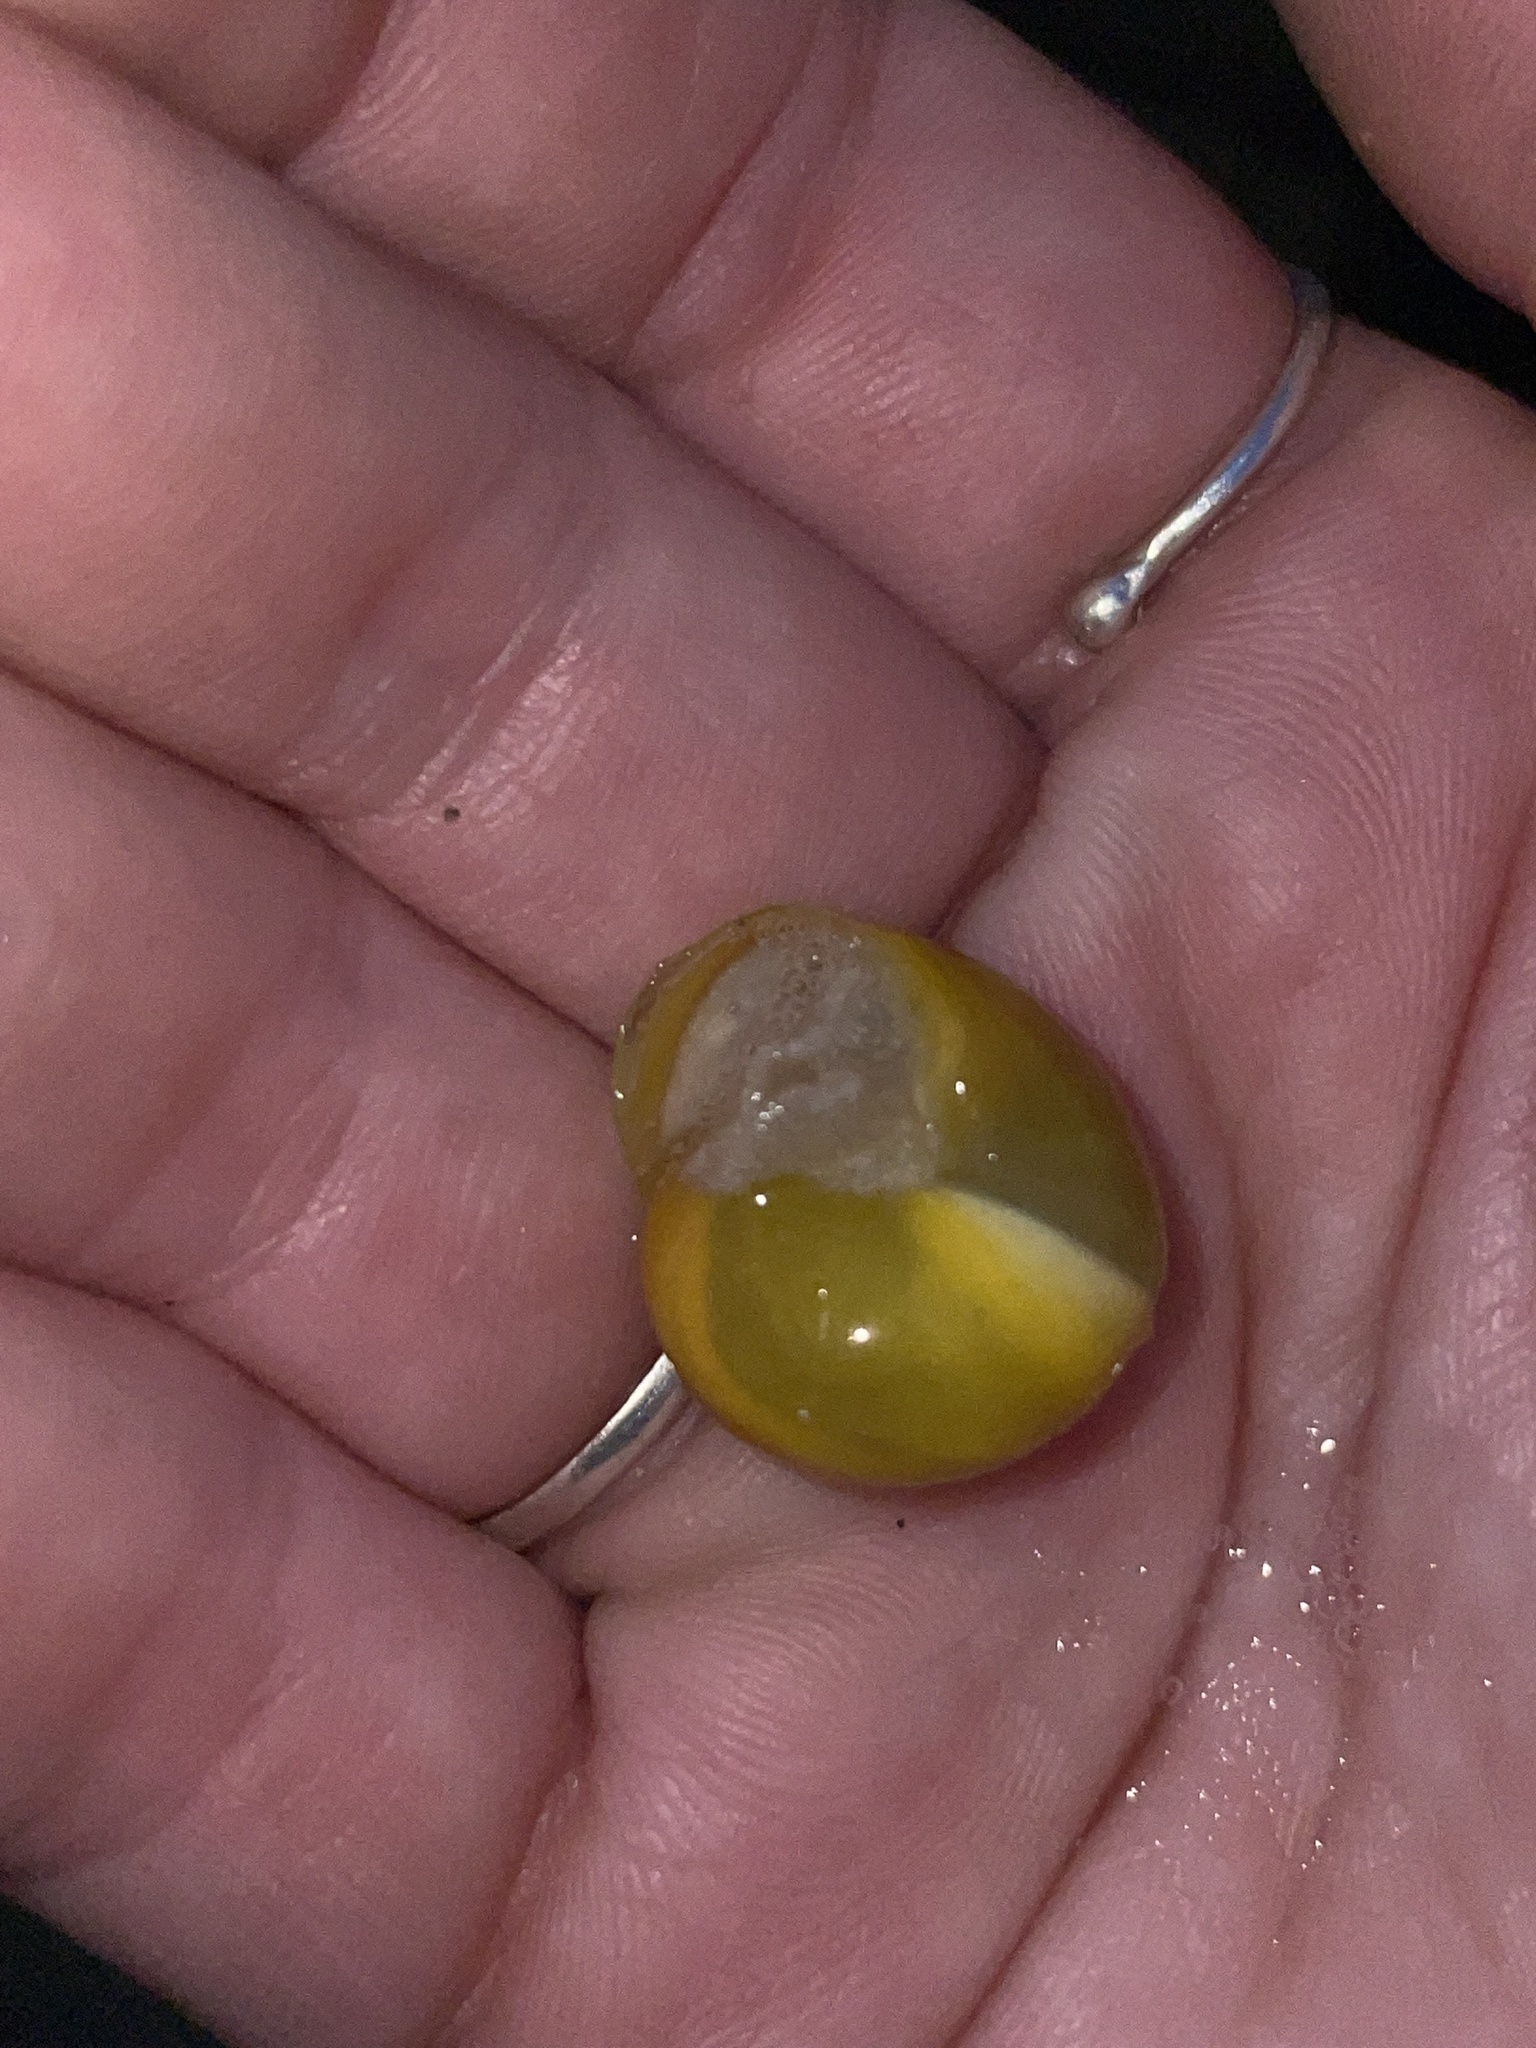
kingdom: Animalia
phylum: Mollusca
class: Gastropoda
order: Stylommatophora
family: Helicidae
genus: Cepaea
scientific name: Cepaea
